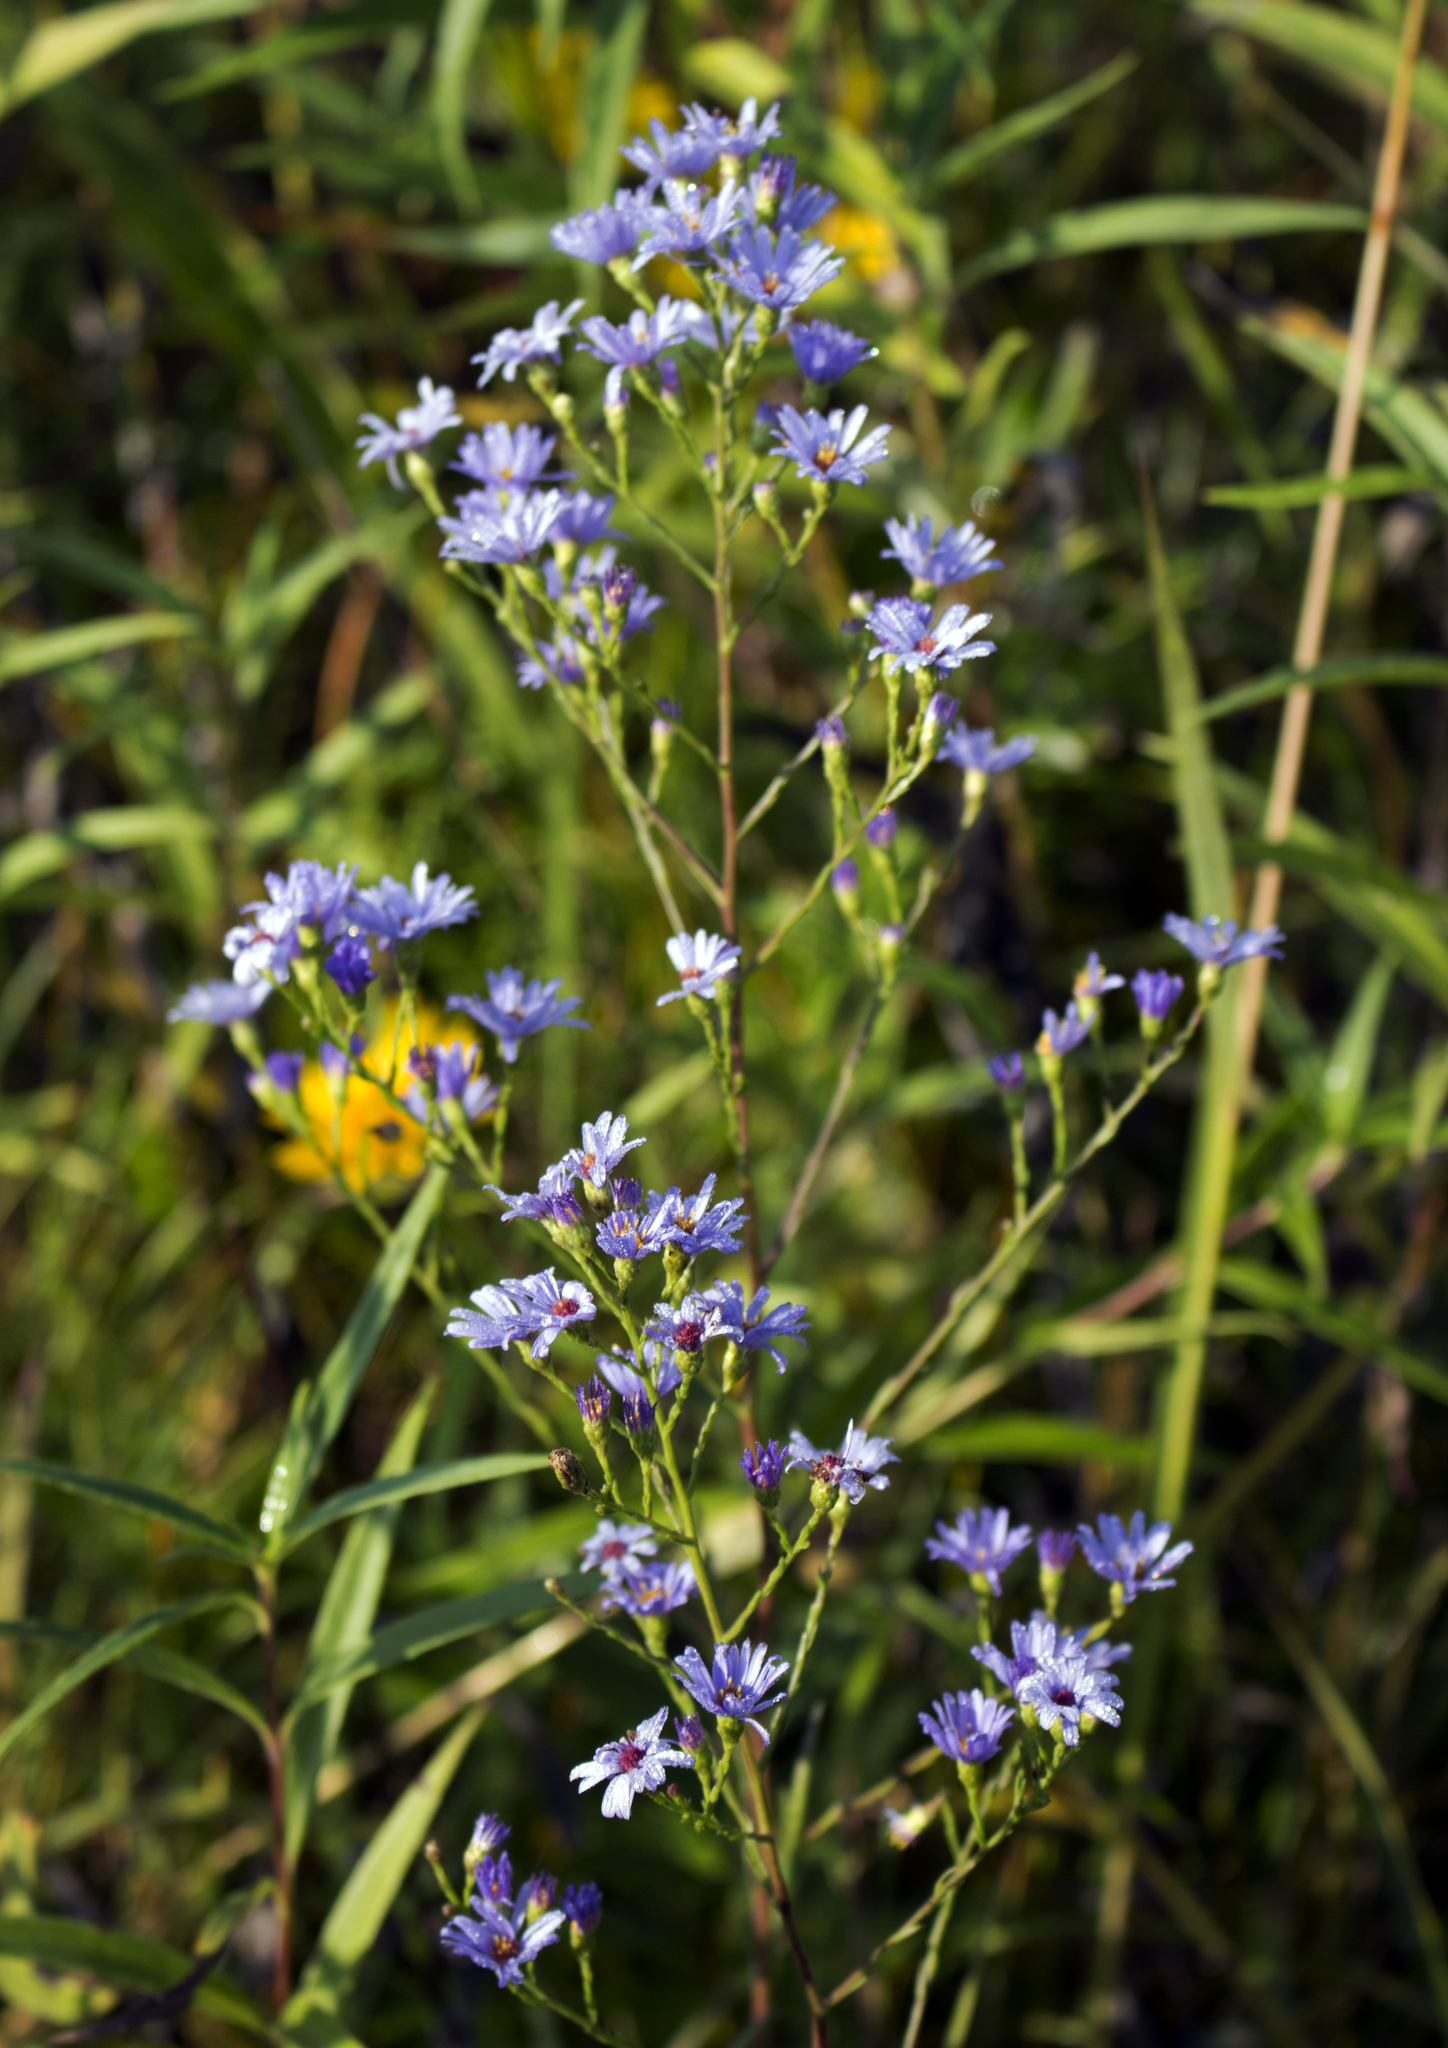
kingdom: Plantae
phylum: Tracheophyta
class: Magnoliopsida
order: Asterales
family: Asteraceae
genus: Symphyotrichum
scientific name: Symphyotrichum oolentangiense
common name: Azure aster
